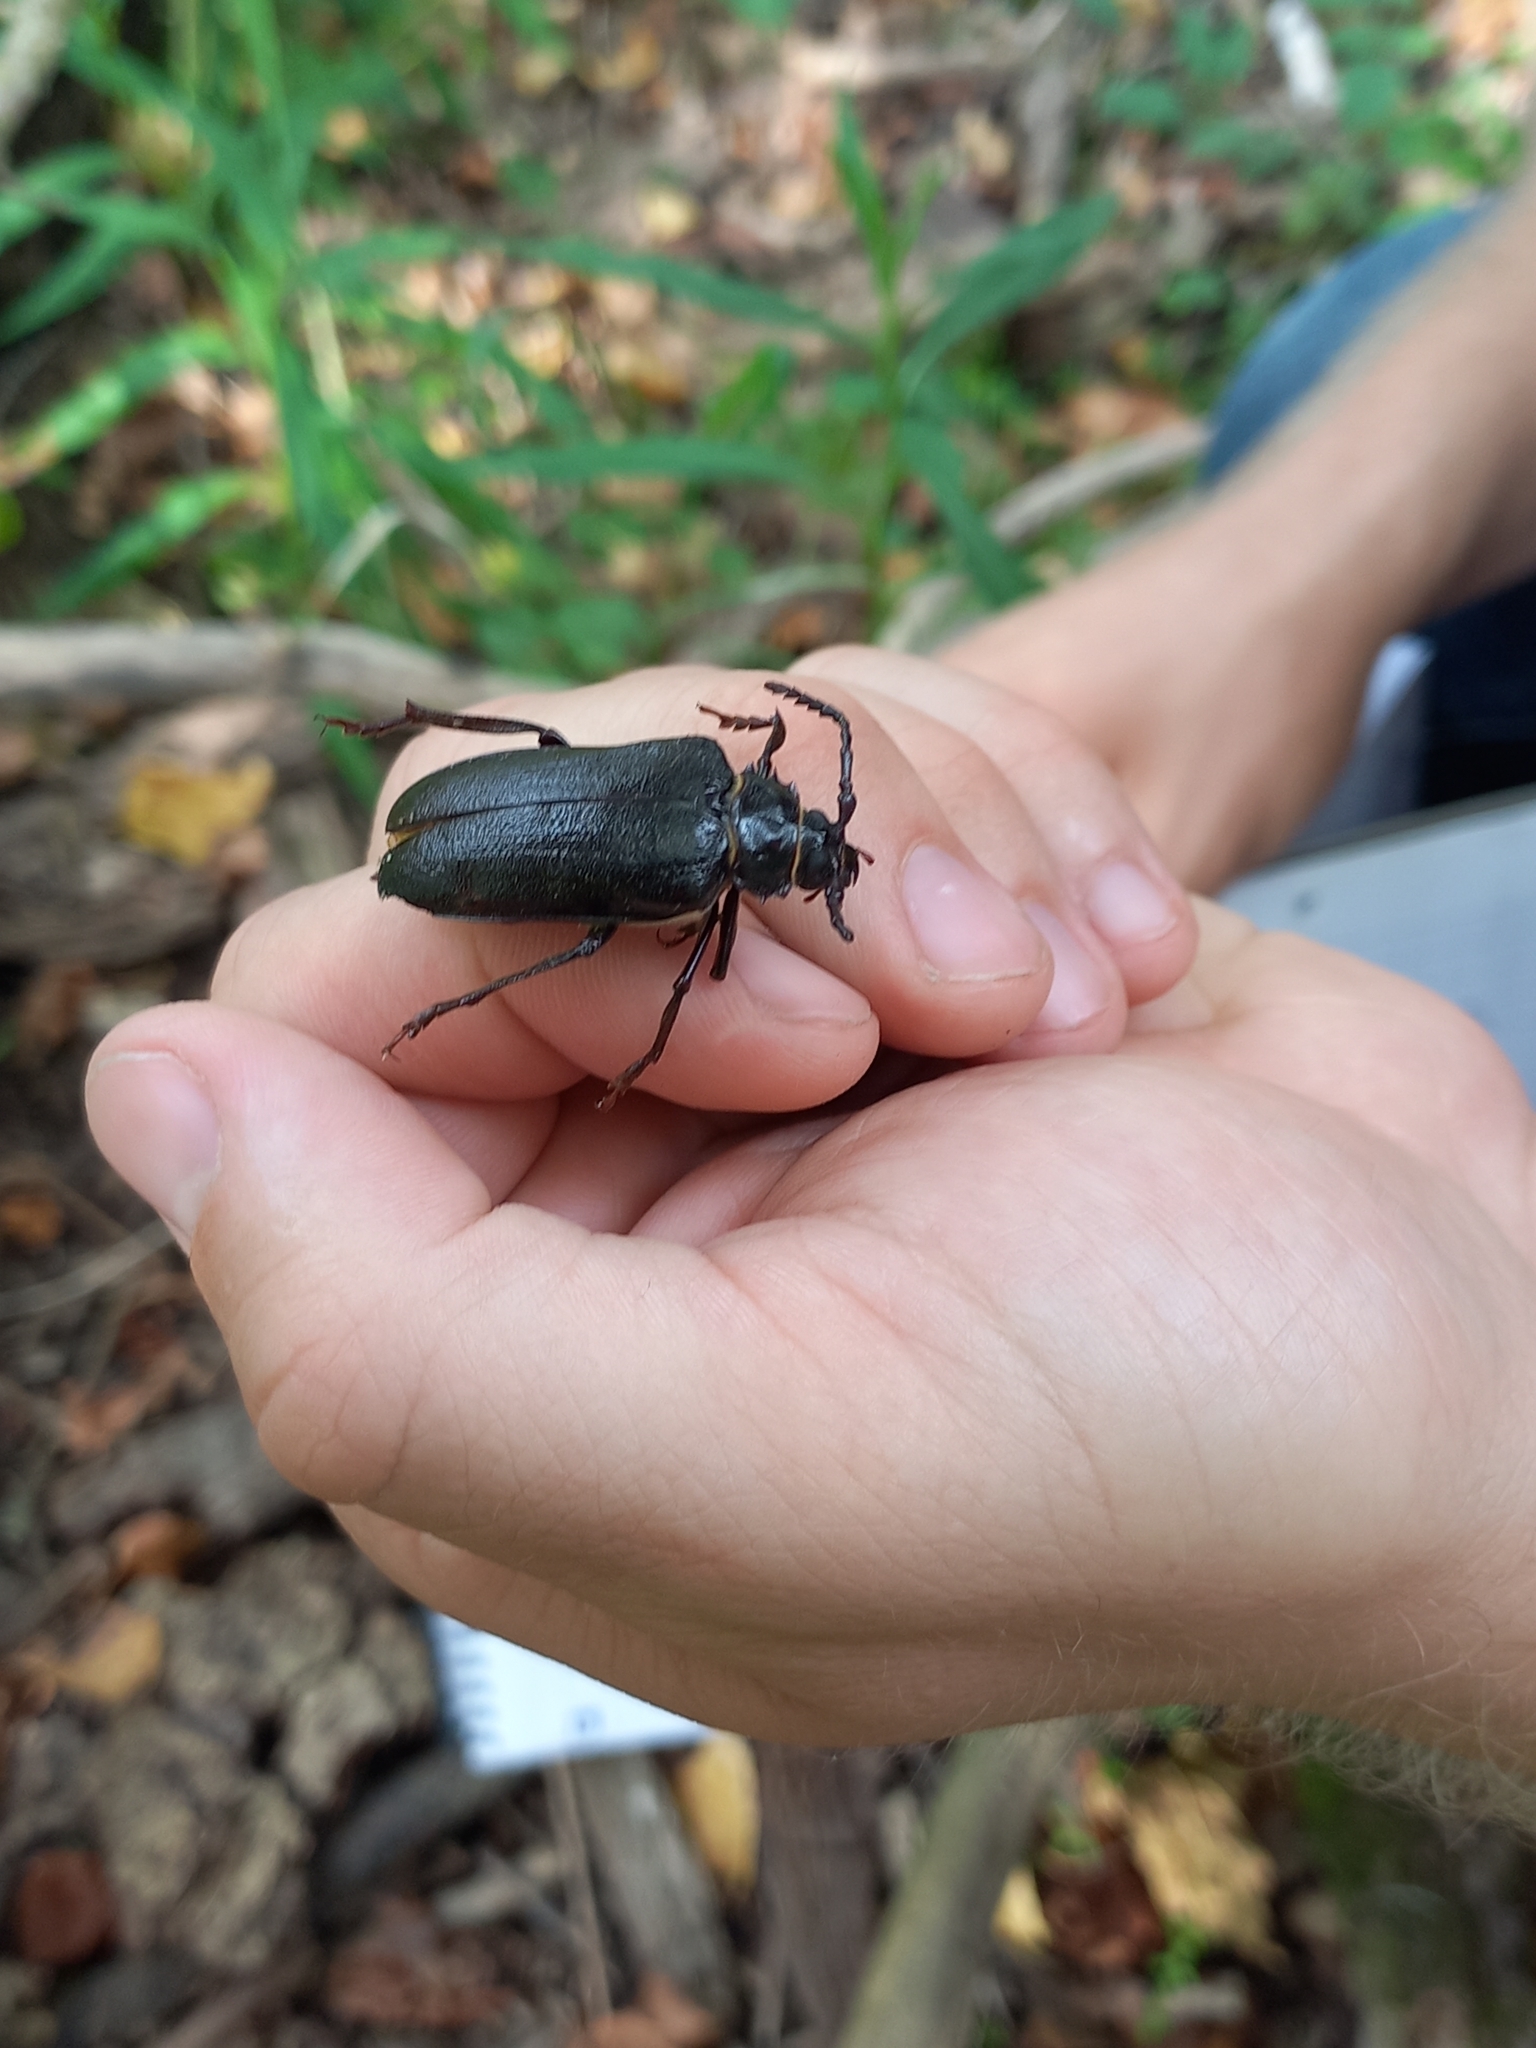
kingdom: Animalia
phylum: Arthropoda
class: Insecta
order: Coleoptera
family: Cerambycidae
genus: Prionus
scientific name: Prionus coriarius
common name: Tanner beetle
